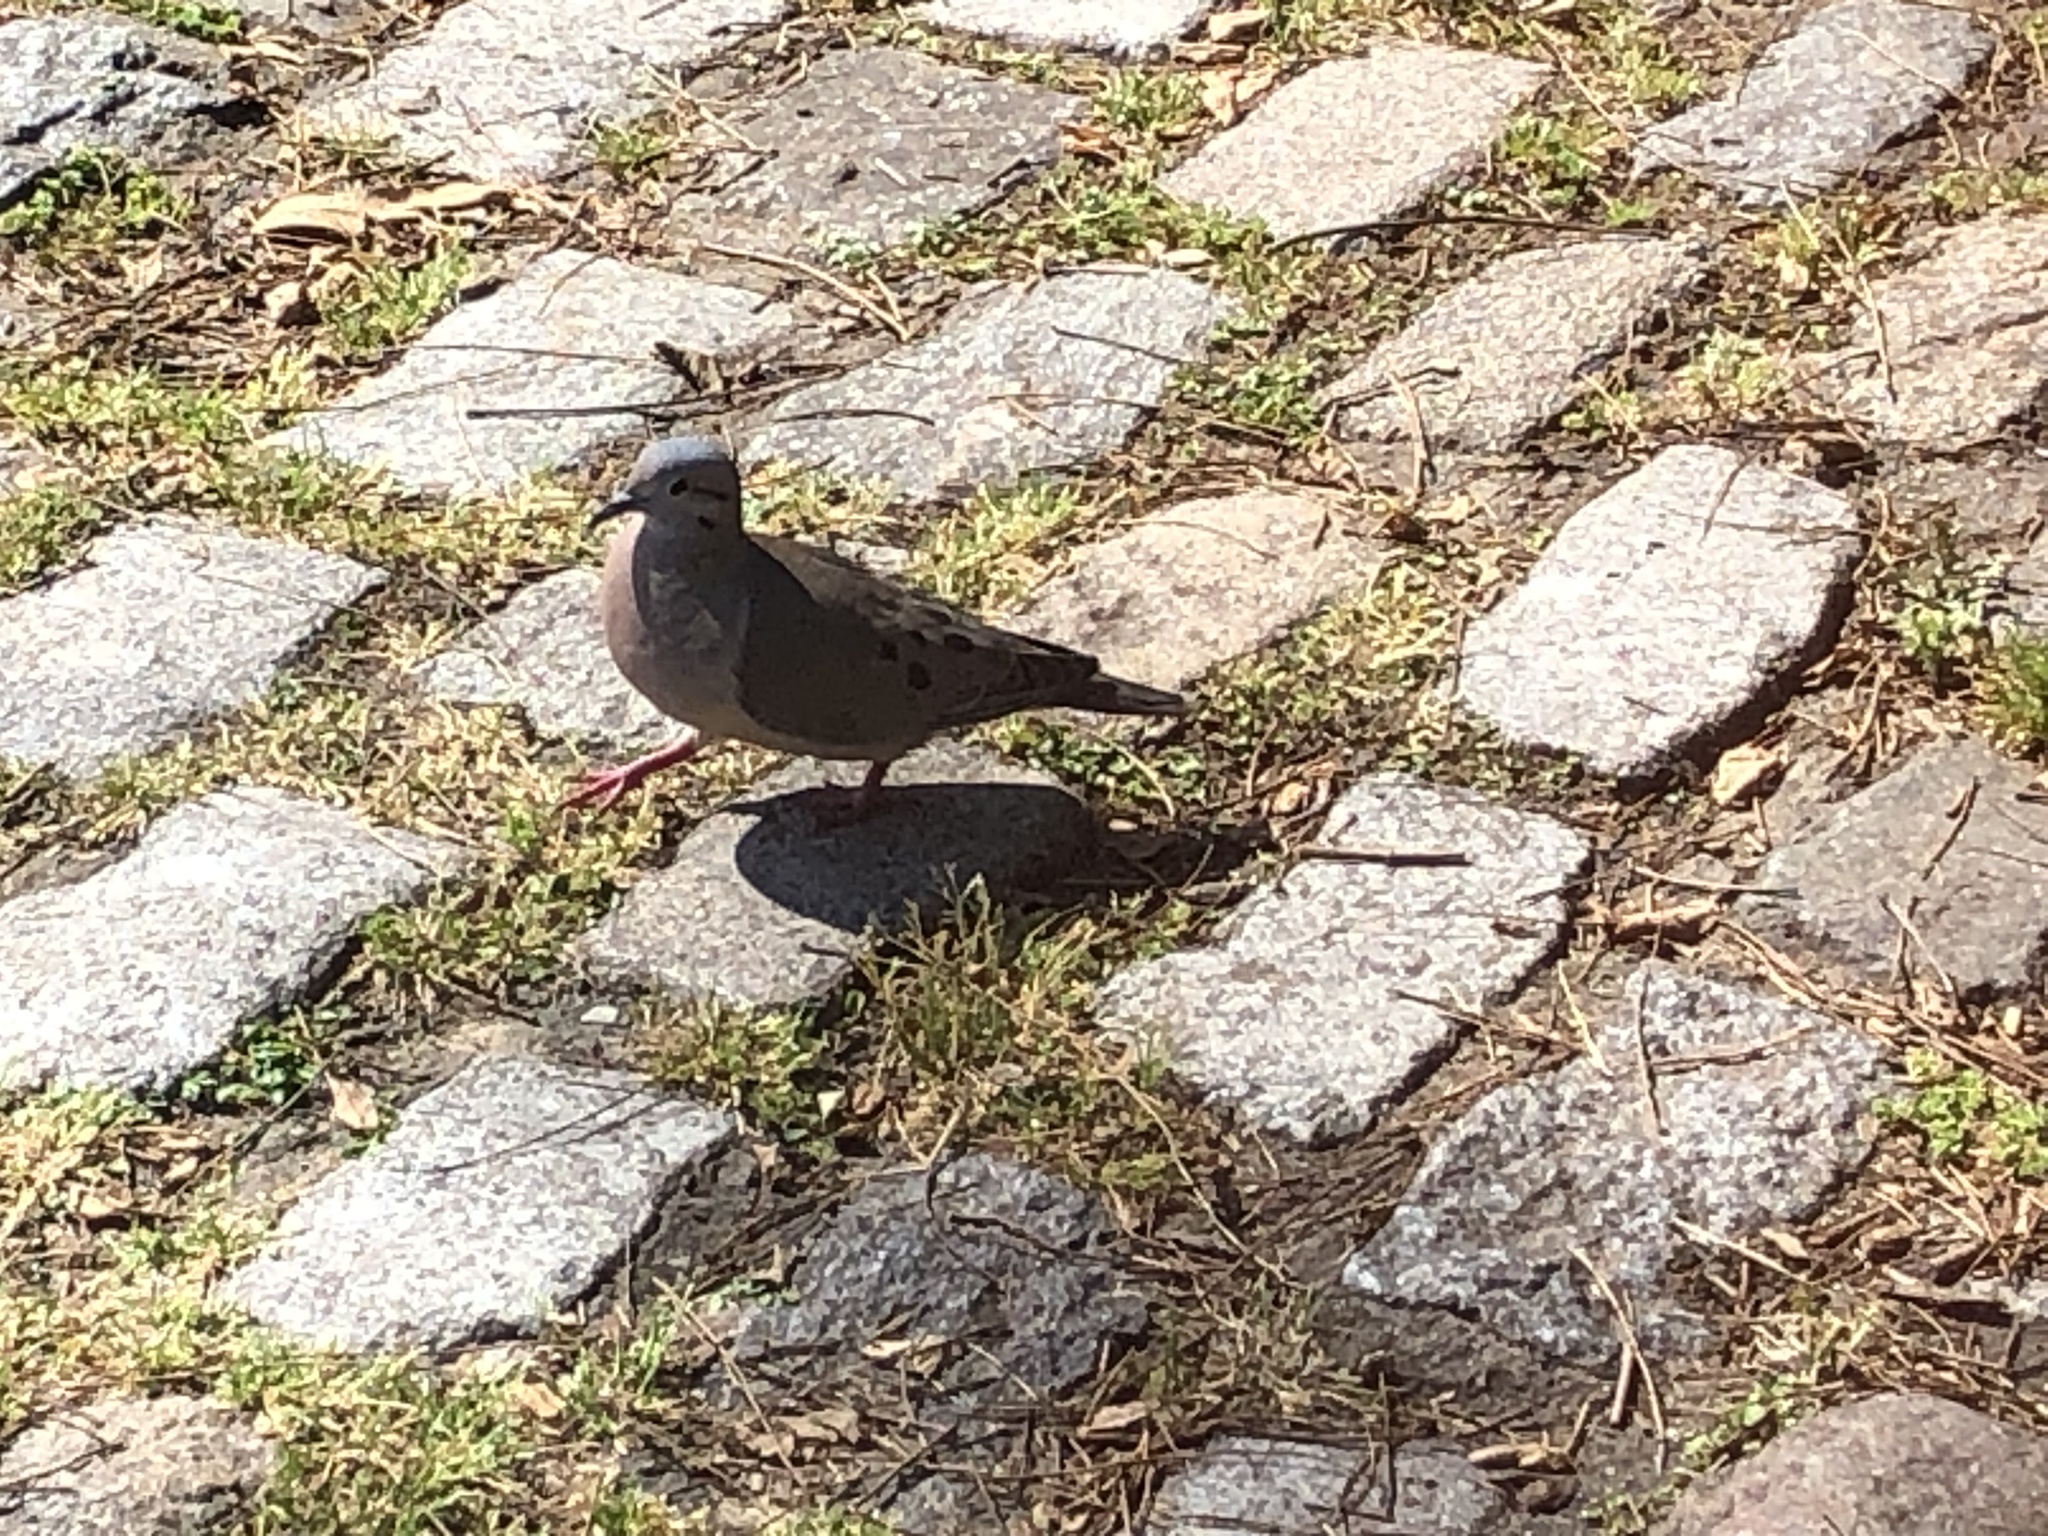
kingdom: Animalia
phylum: Chordata
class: Aves
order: Columbiformes
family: Columbidae
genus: Zenaida
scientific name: Zenaida auriculata
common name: Eared dove
